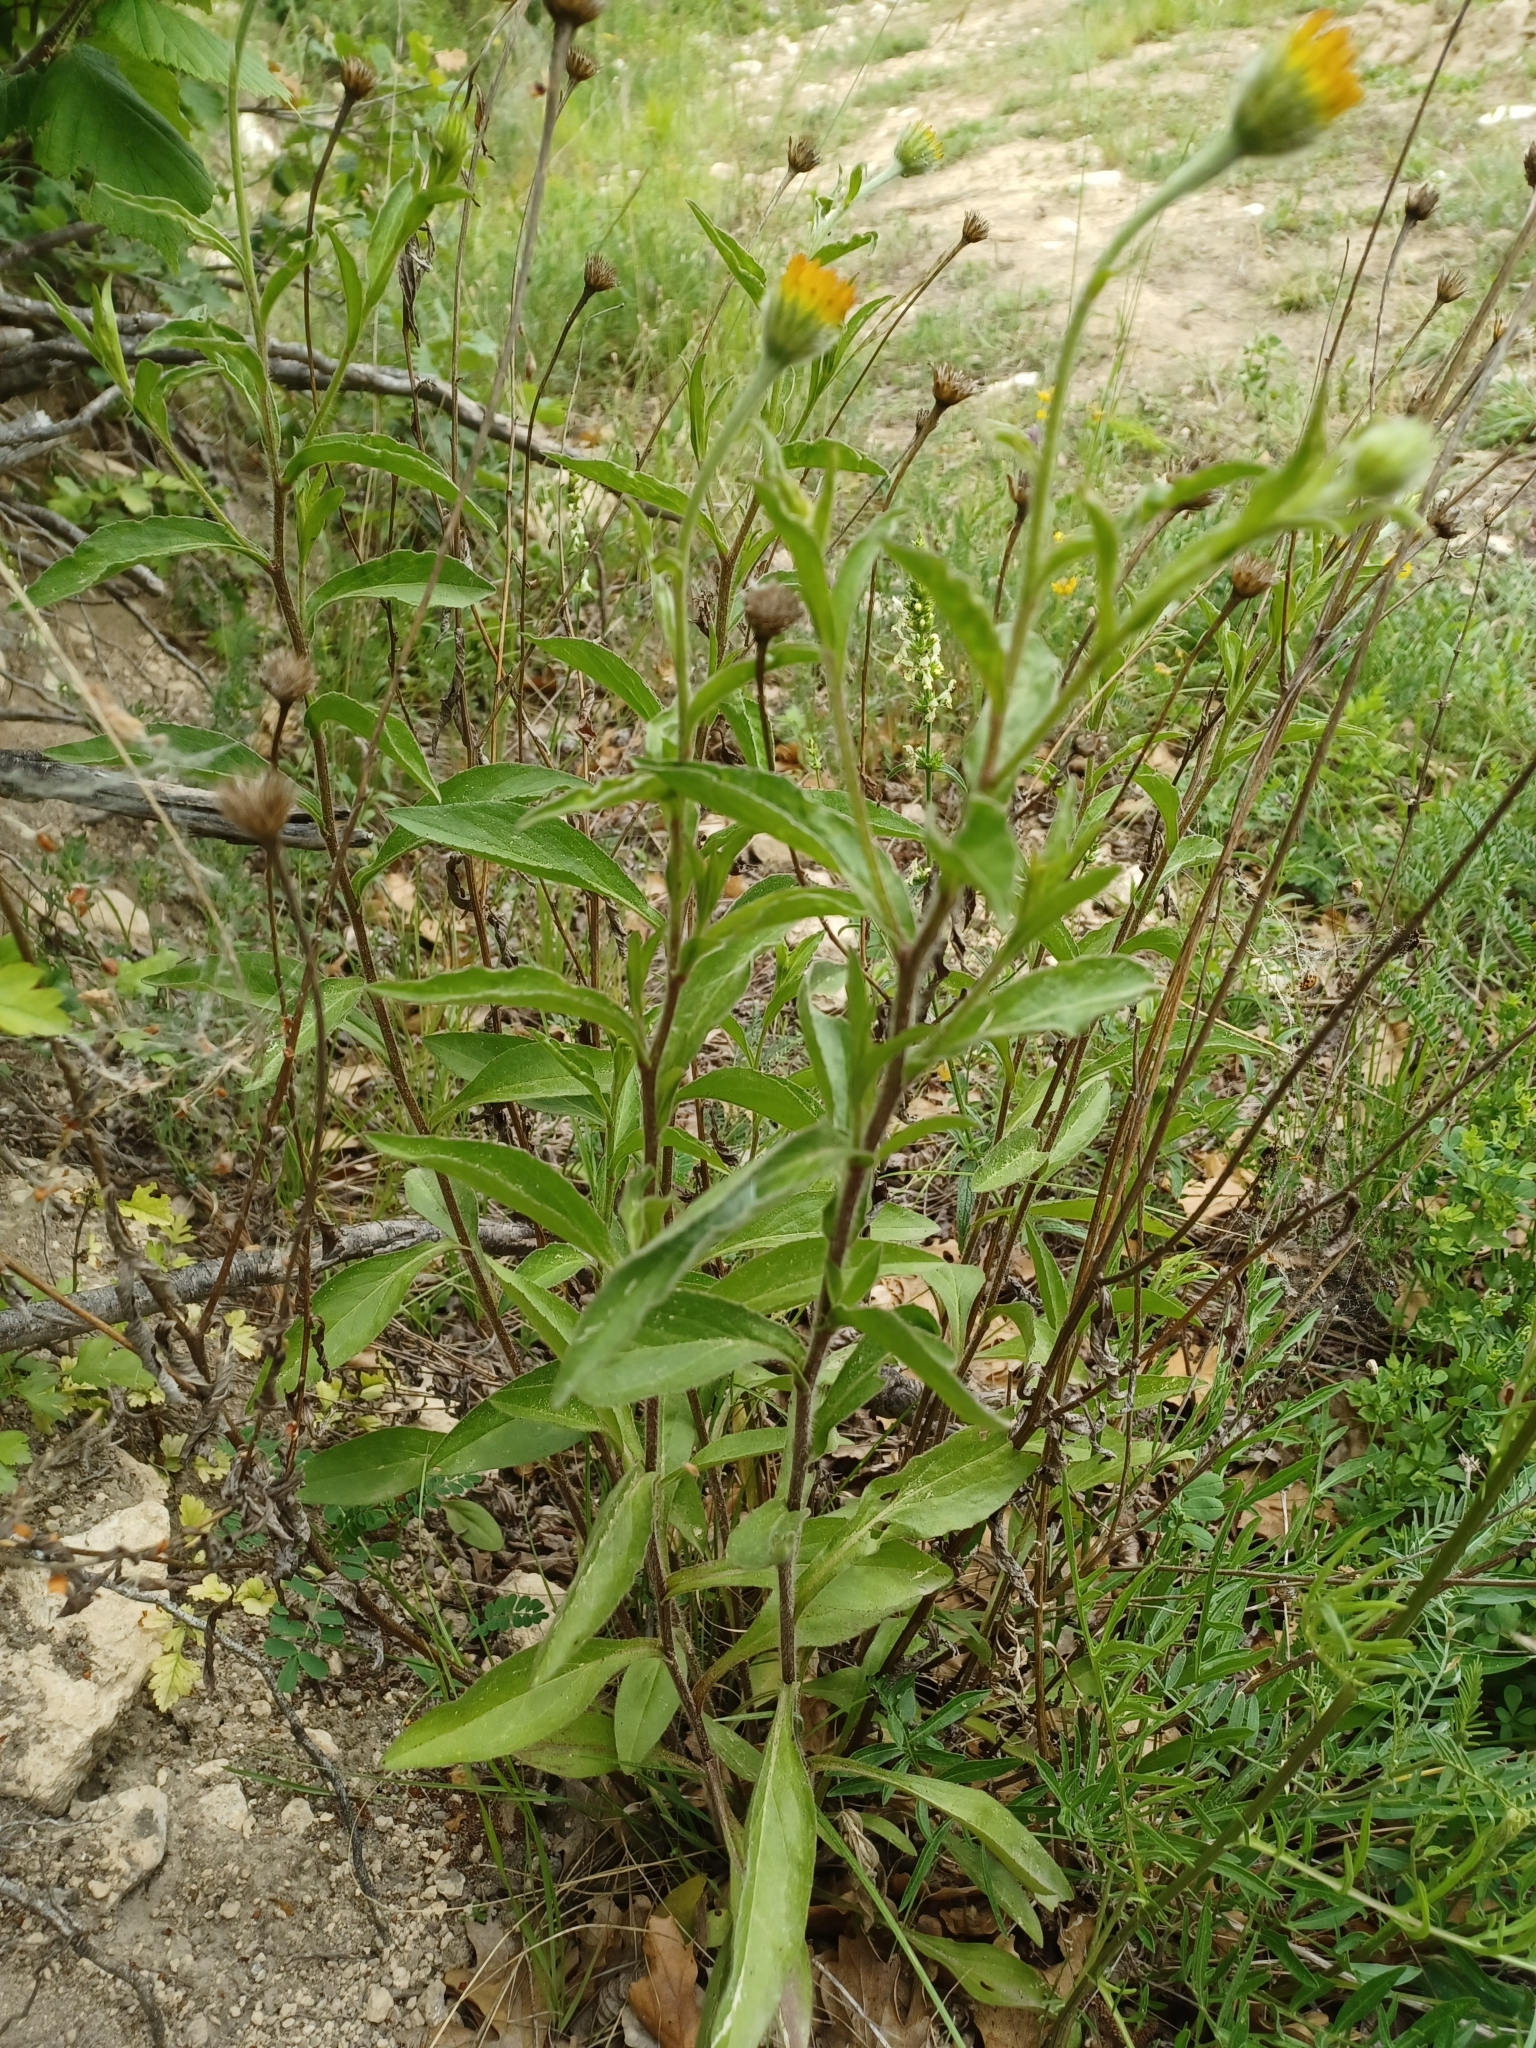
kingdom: Plantae
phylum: Tracheophyta
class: Magnoliopsida
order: Asterales
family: Asteraceae
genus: Buphthalmum
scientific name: Buphthalmum salicifolium
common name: Willow-leaved yellow-oxeye
